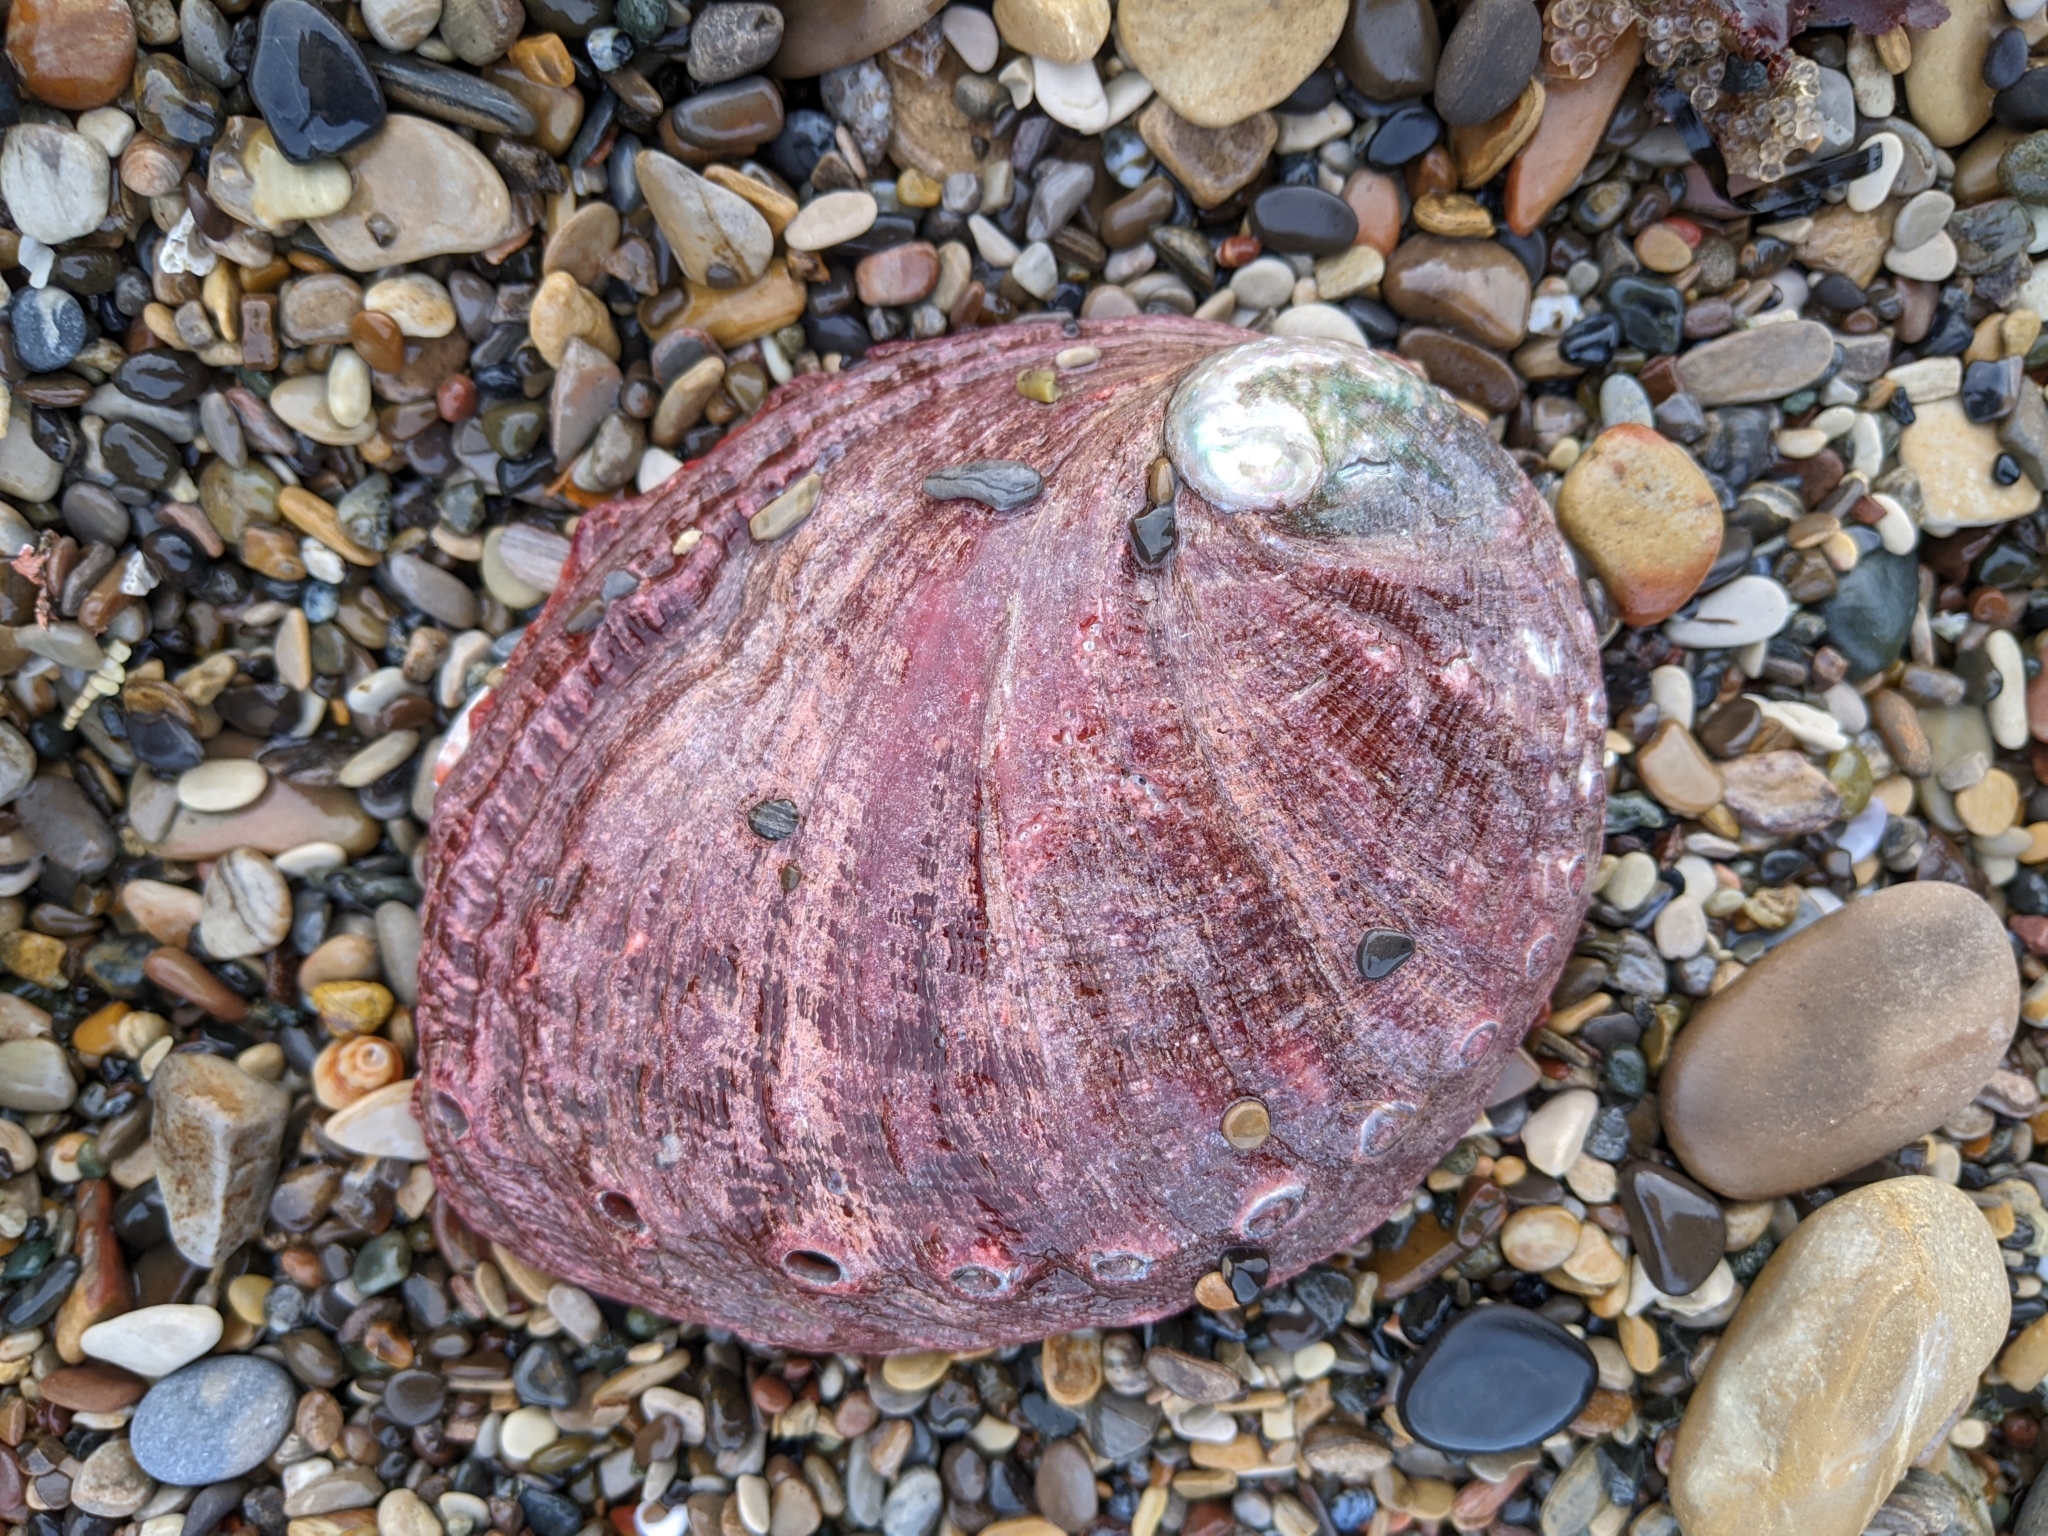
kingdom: Animalia
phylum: Mollusca
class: Gastropoda
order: Lepetellida
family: Haliotidae
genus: Haliotis
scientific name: Haliotis rufescens
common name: Red abalone
